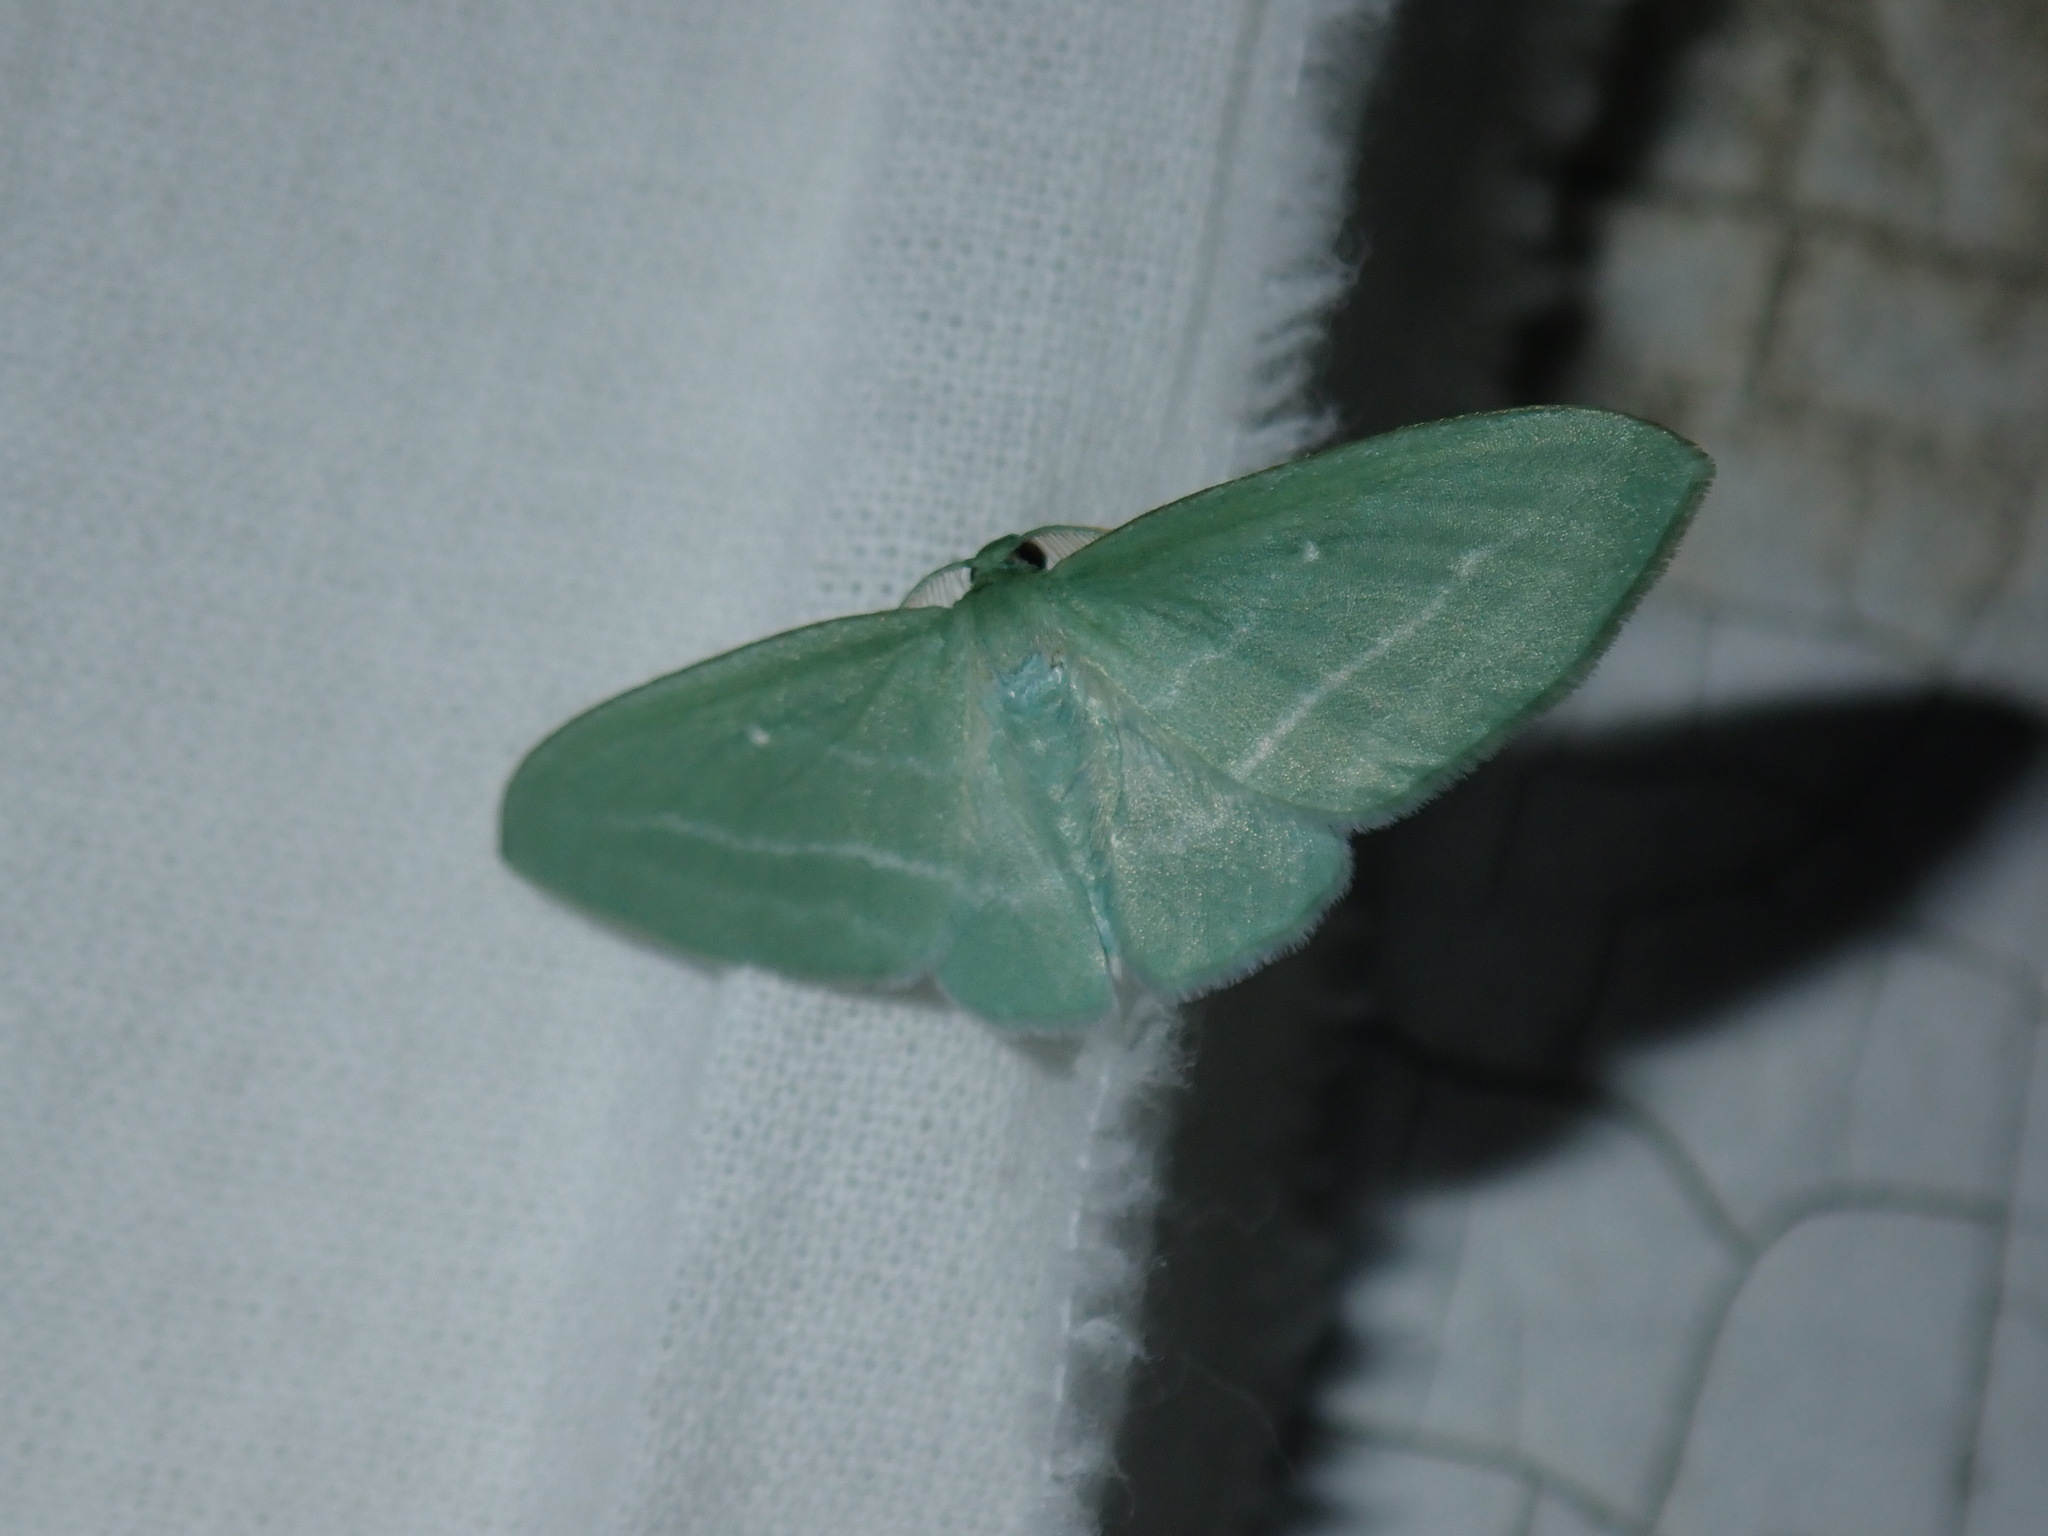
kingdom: Animalia
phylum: Arthropoda
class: Insecta
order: Lepidoptera
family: Geometridae
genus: Dyspteris
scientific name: Dyspteris abortivaria
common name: Bad-wing
